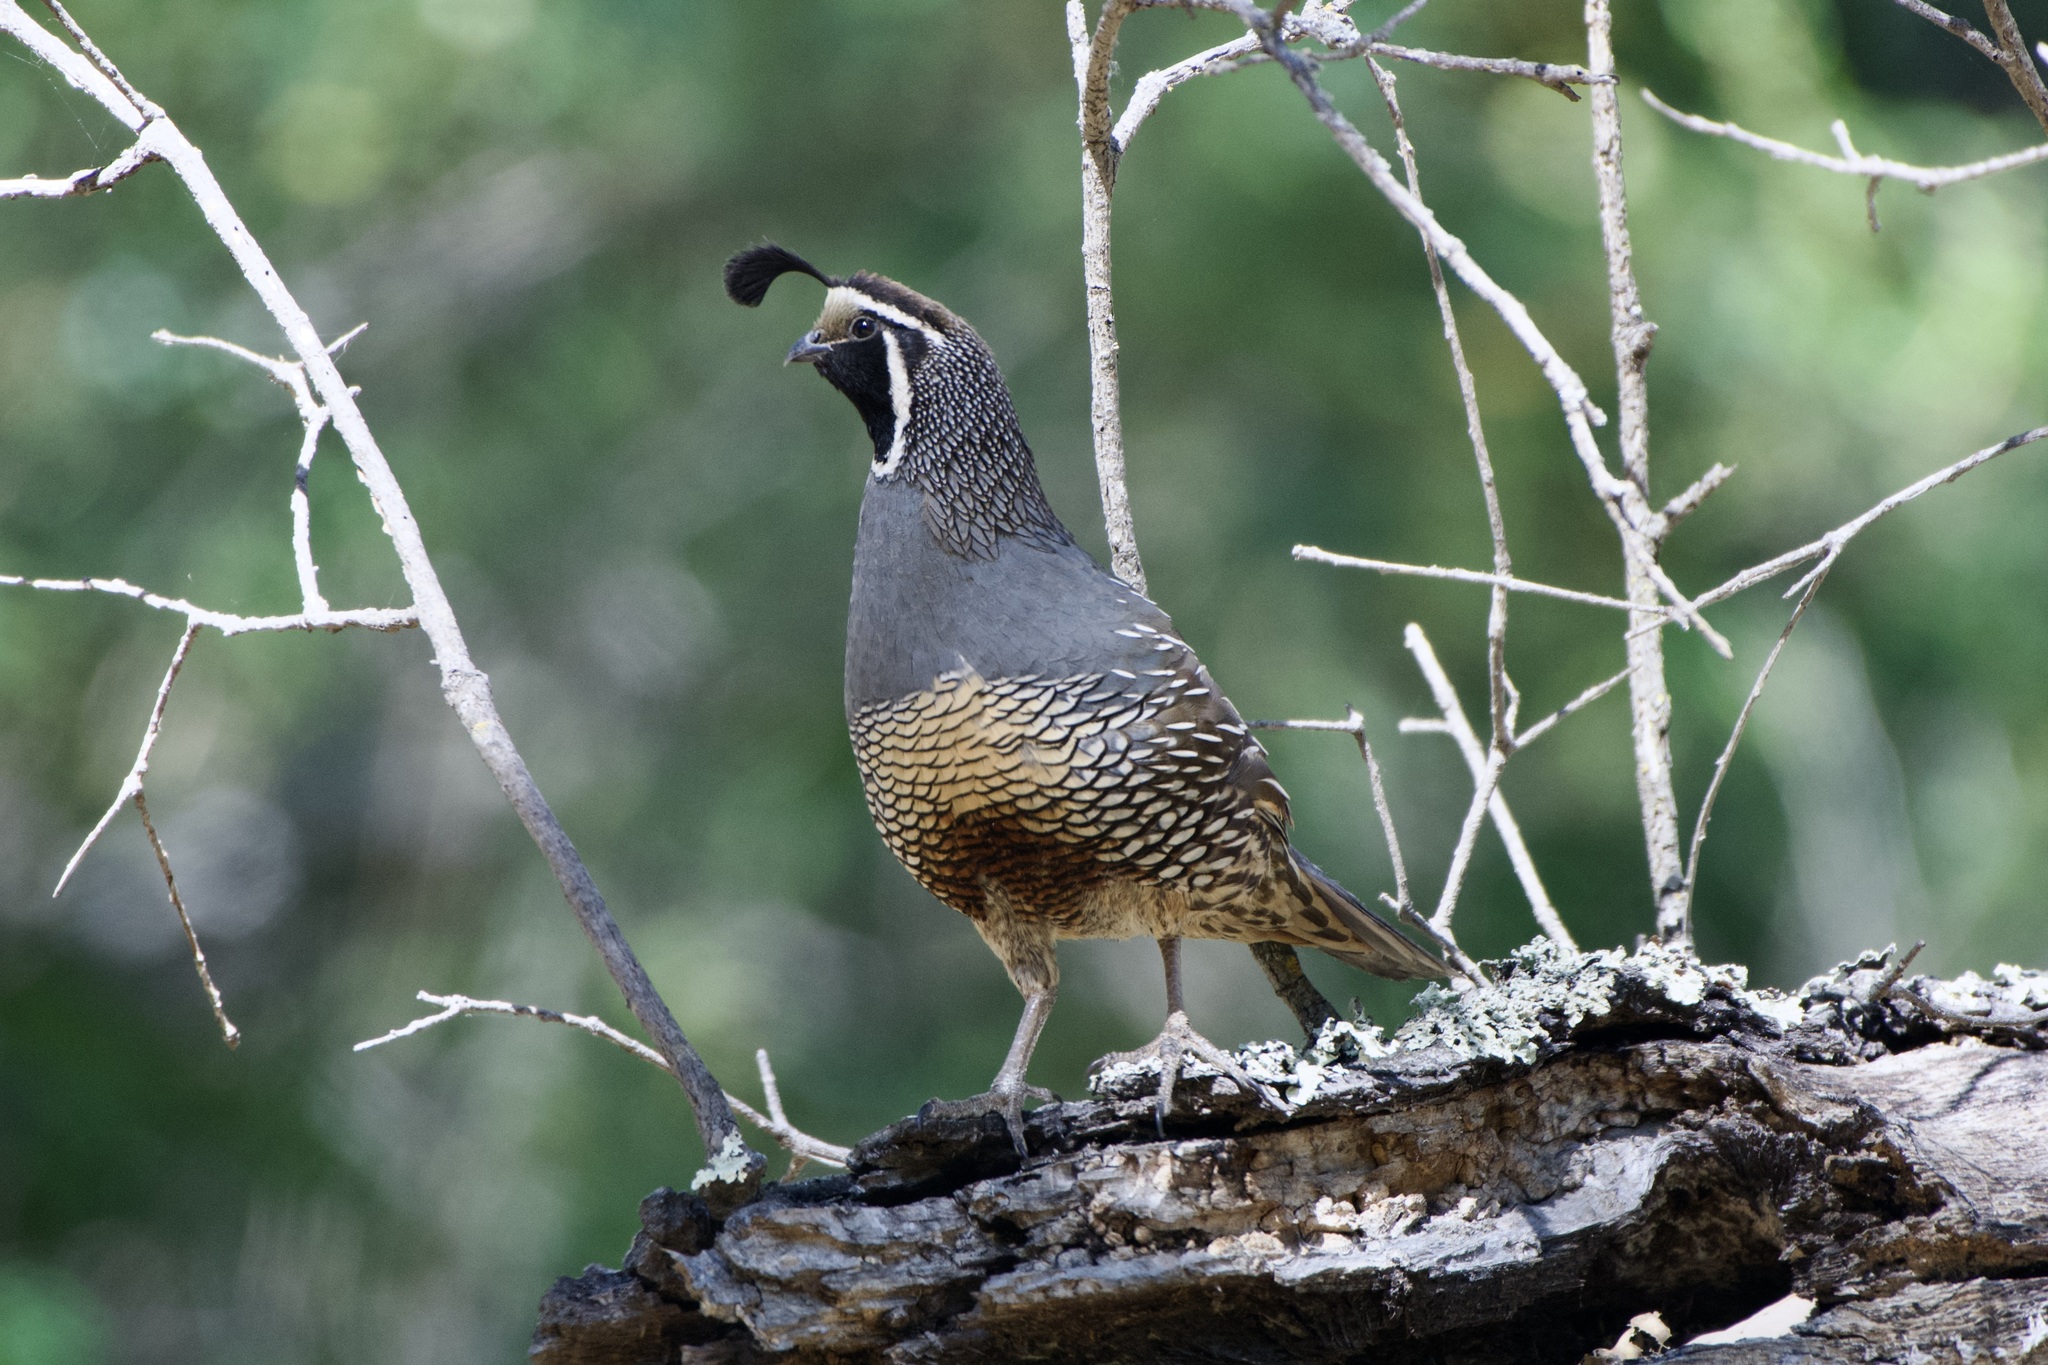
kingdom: Animalia
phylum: Chordata
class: Aves
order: Galliformes
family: Odontophoridae
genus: Callipepla
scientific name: Callipepla californica
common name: California quail
